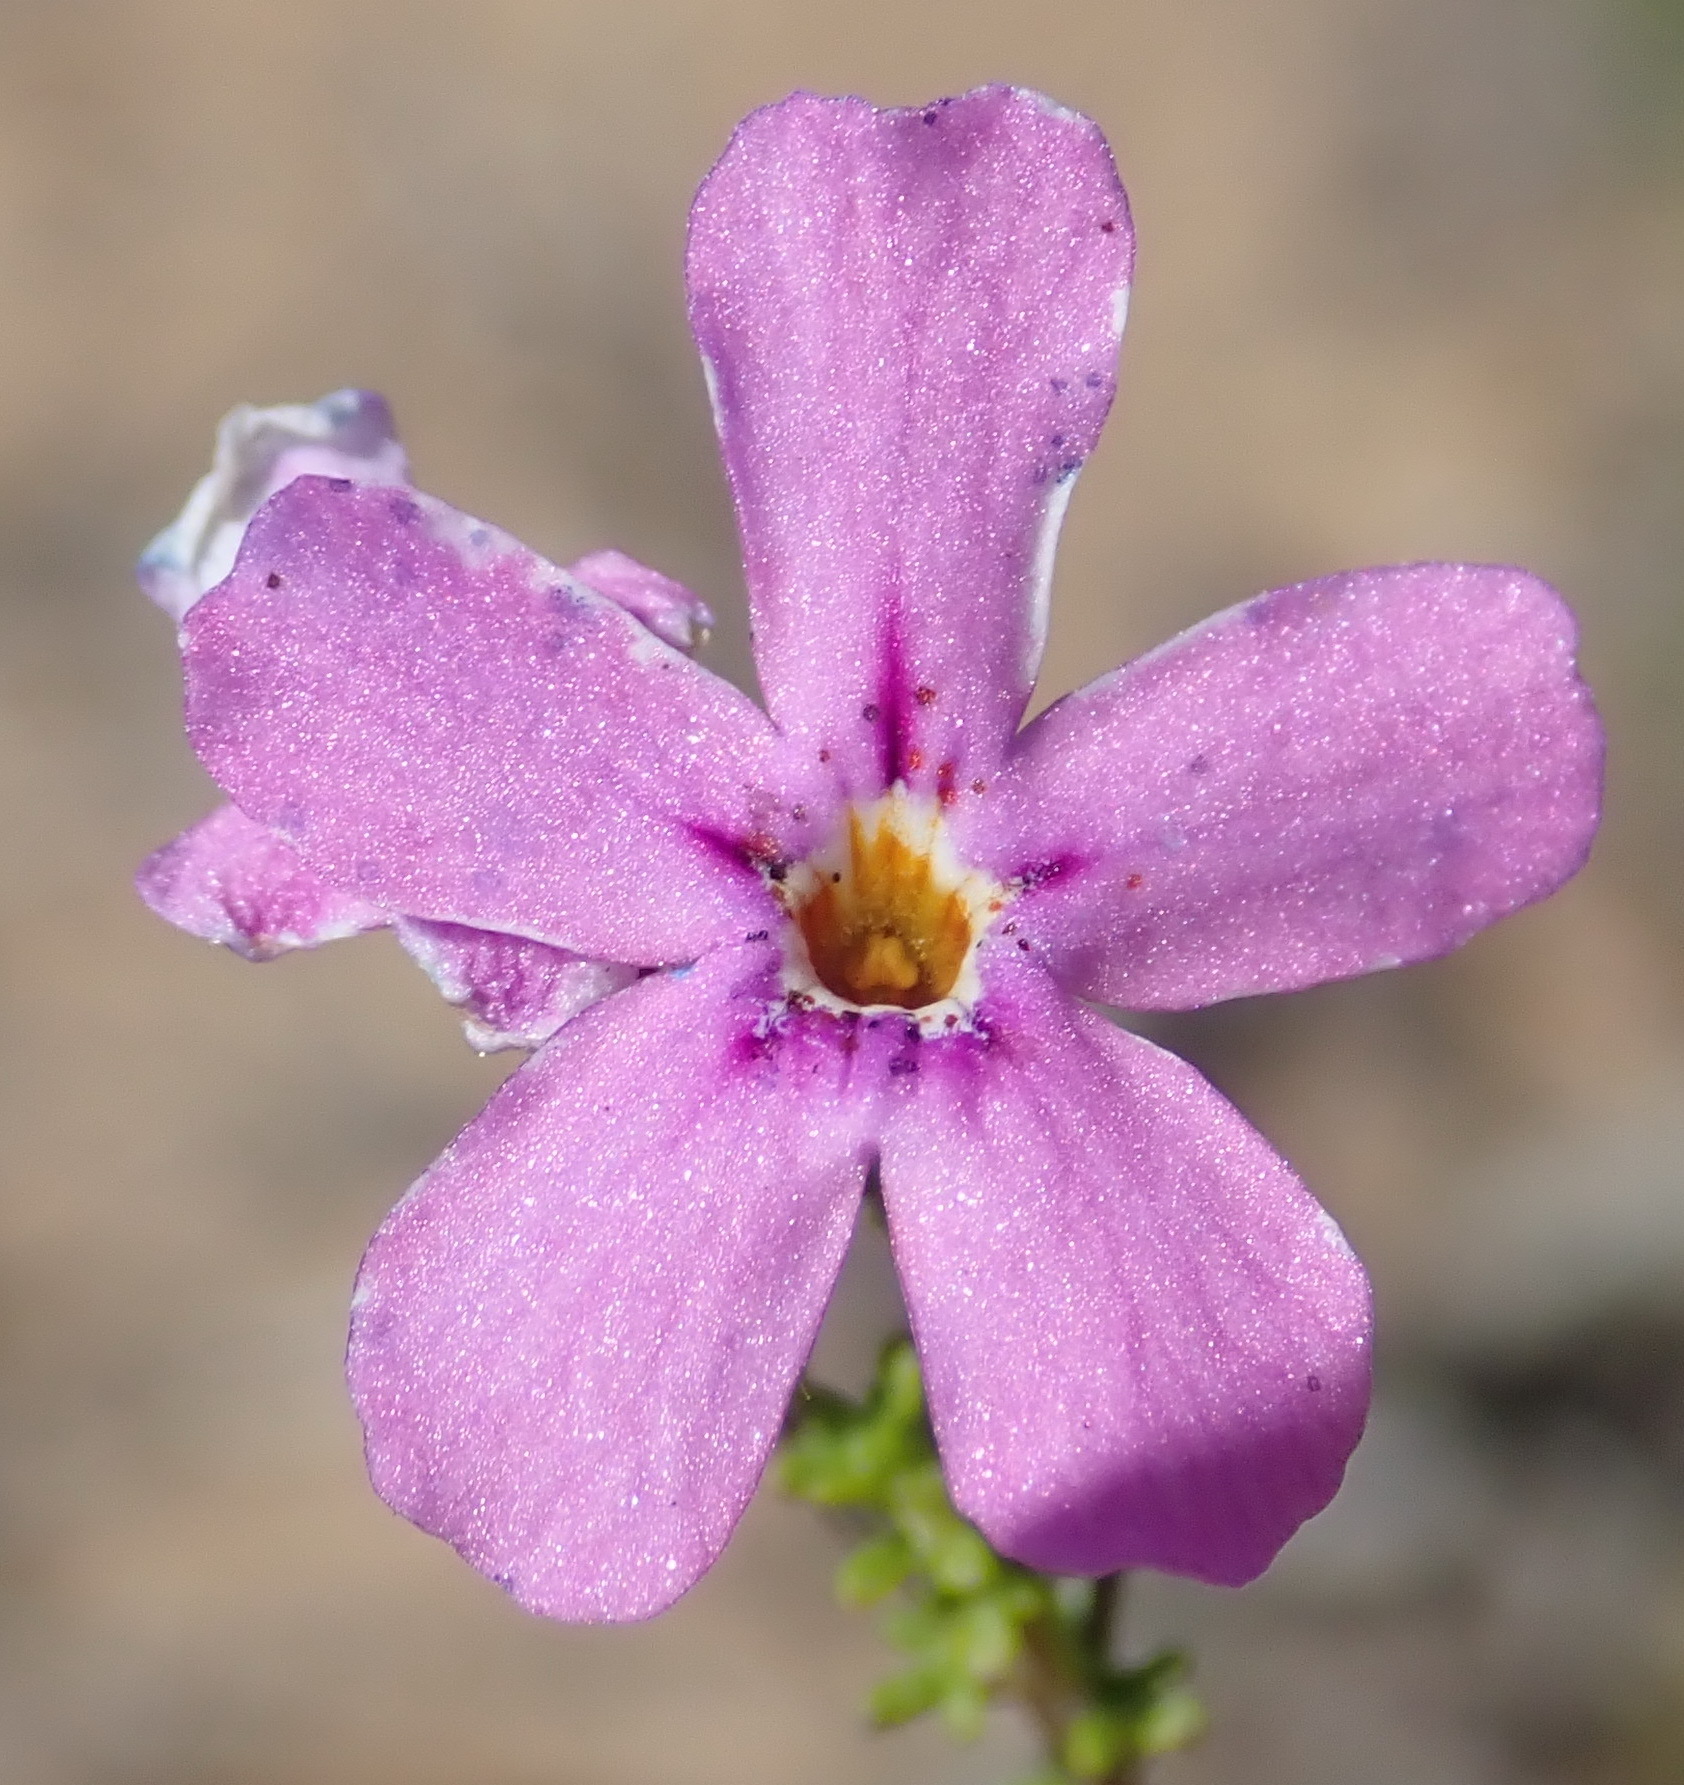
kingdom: Plantae
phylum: Tracheophyta
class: Magnoliopsida
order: Lamiales
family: Scrophulariaceae
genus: Jamesbrittenia
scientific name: Jamesbrittenia calciphila
